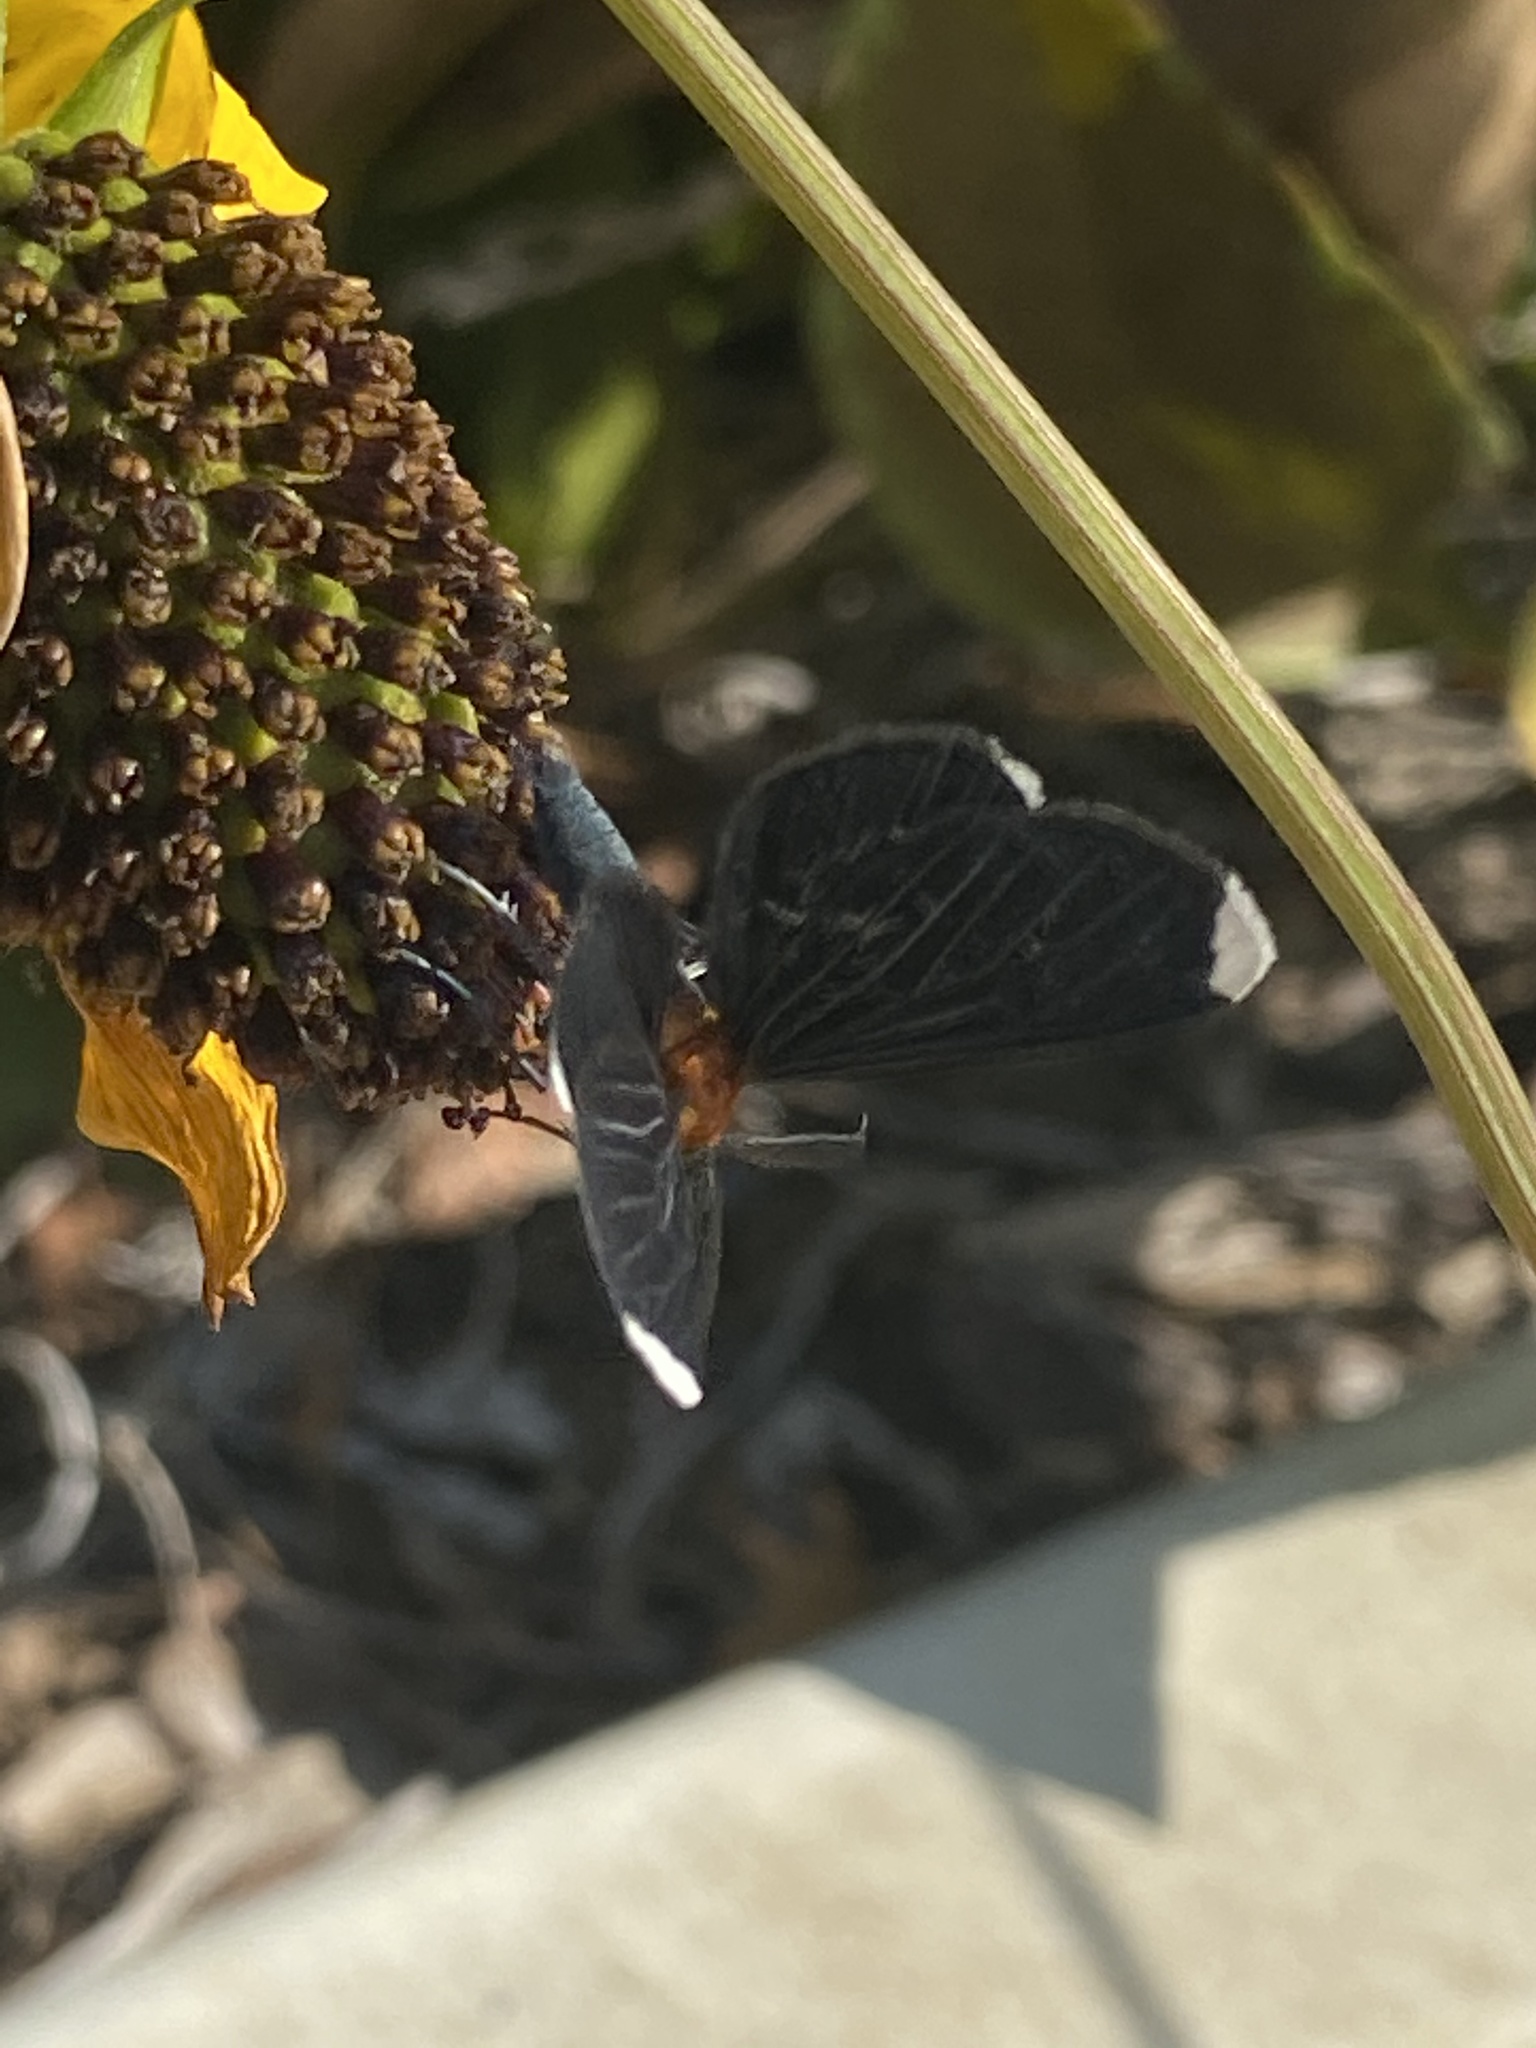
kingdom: Animalia
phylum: Arthropoda
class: Insecta
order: Lepidoptera
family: Geometridae
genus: Melanchroia
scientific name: Melanchroia chephise
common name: White-tipped black
